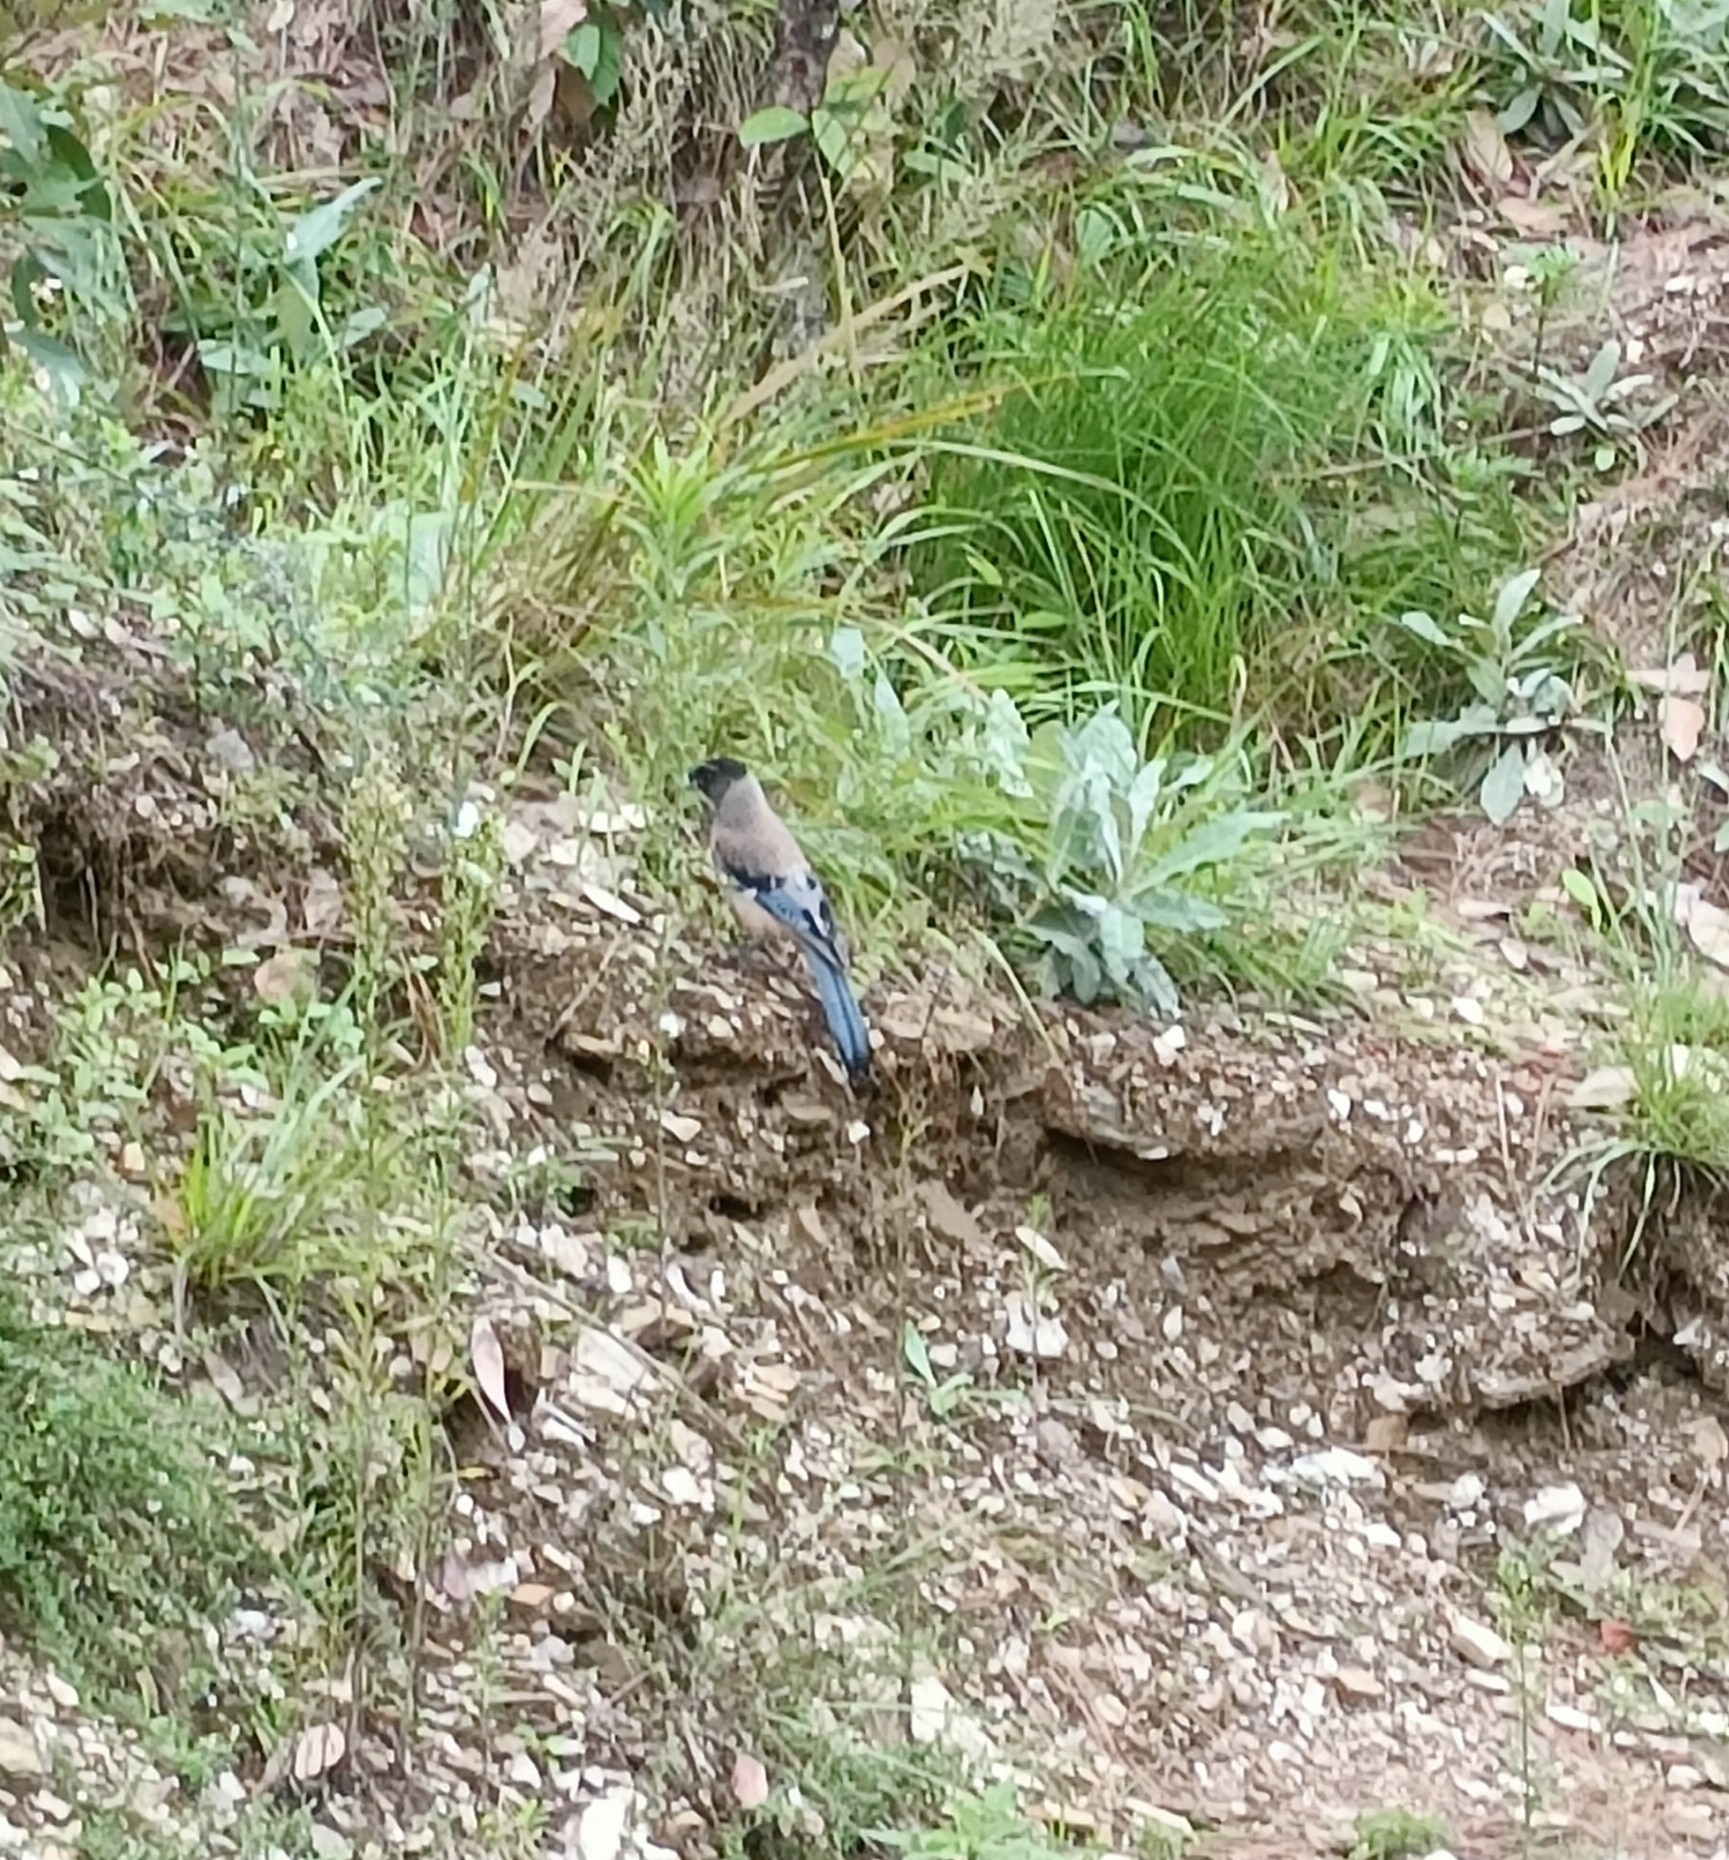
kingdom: Animalia
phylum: Chordata
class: Aves
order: Passeriformes
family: Corvidae
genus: Garrulus
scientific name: Garrulus lanceolatus
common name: Black-headed jay
